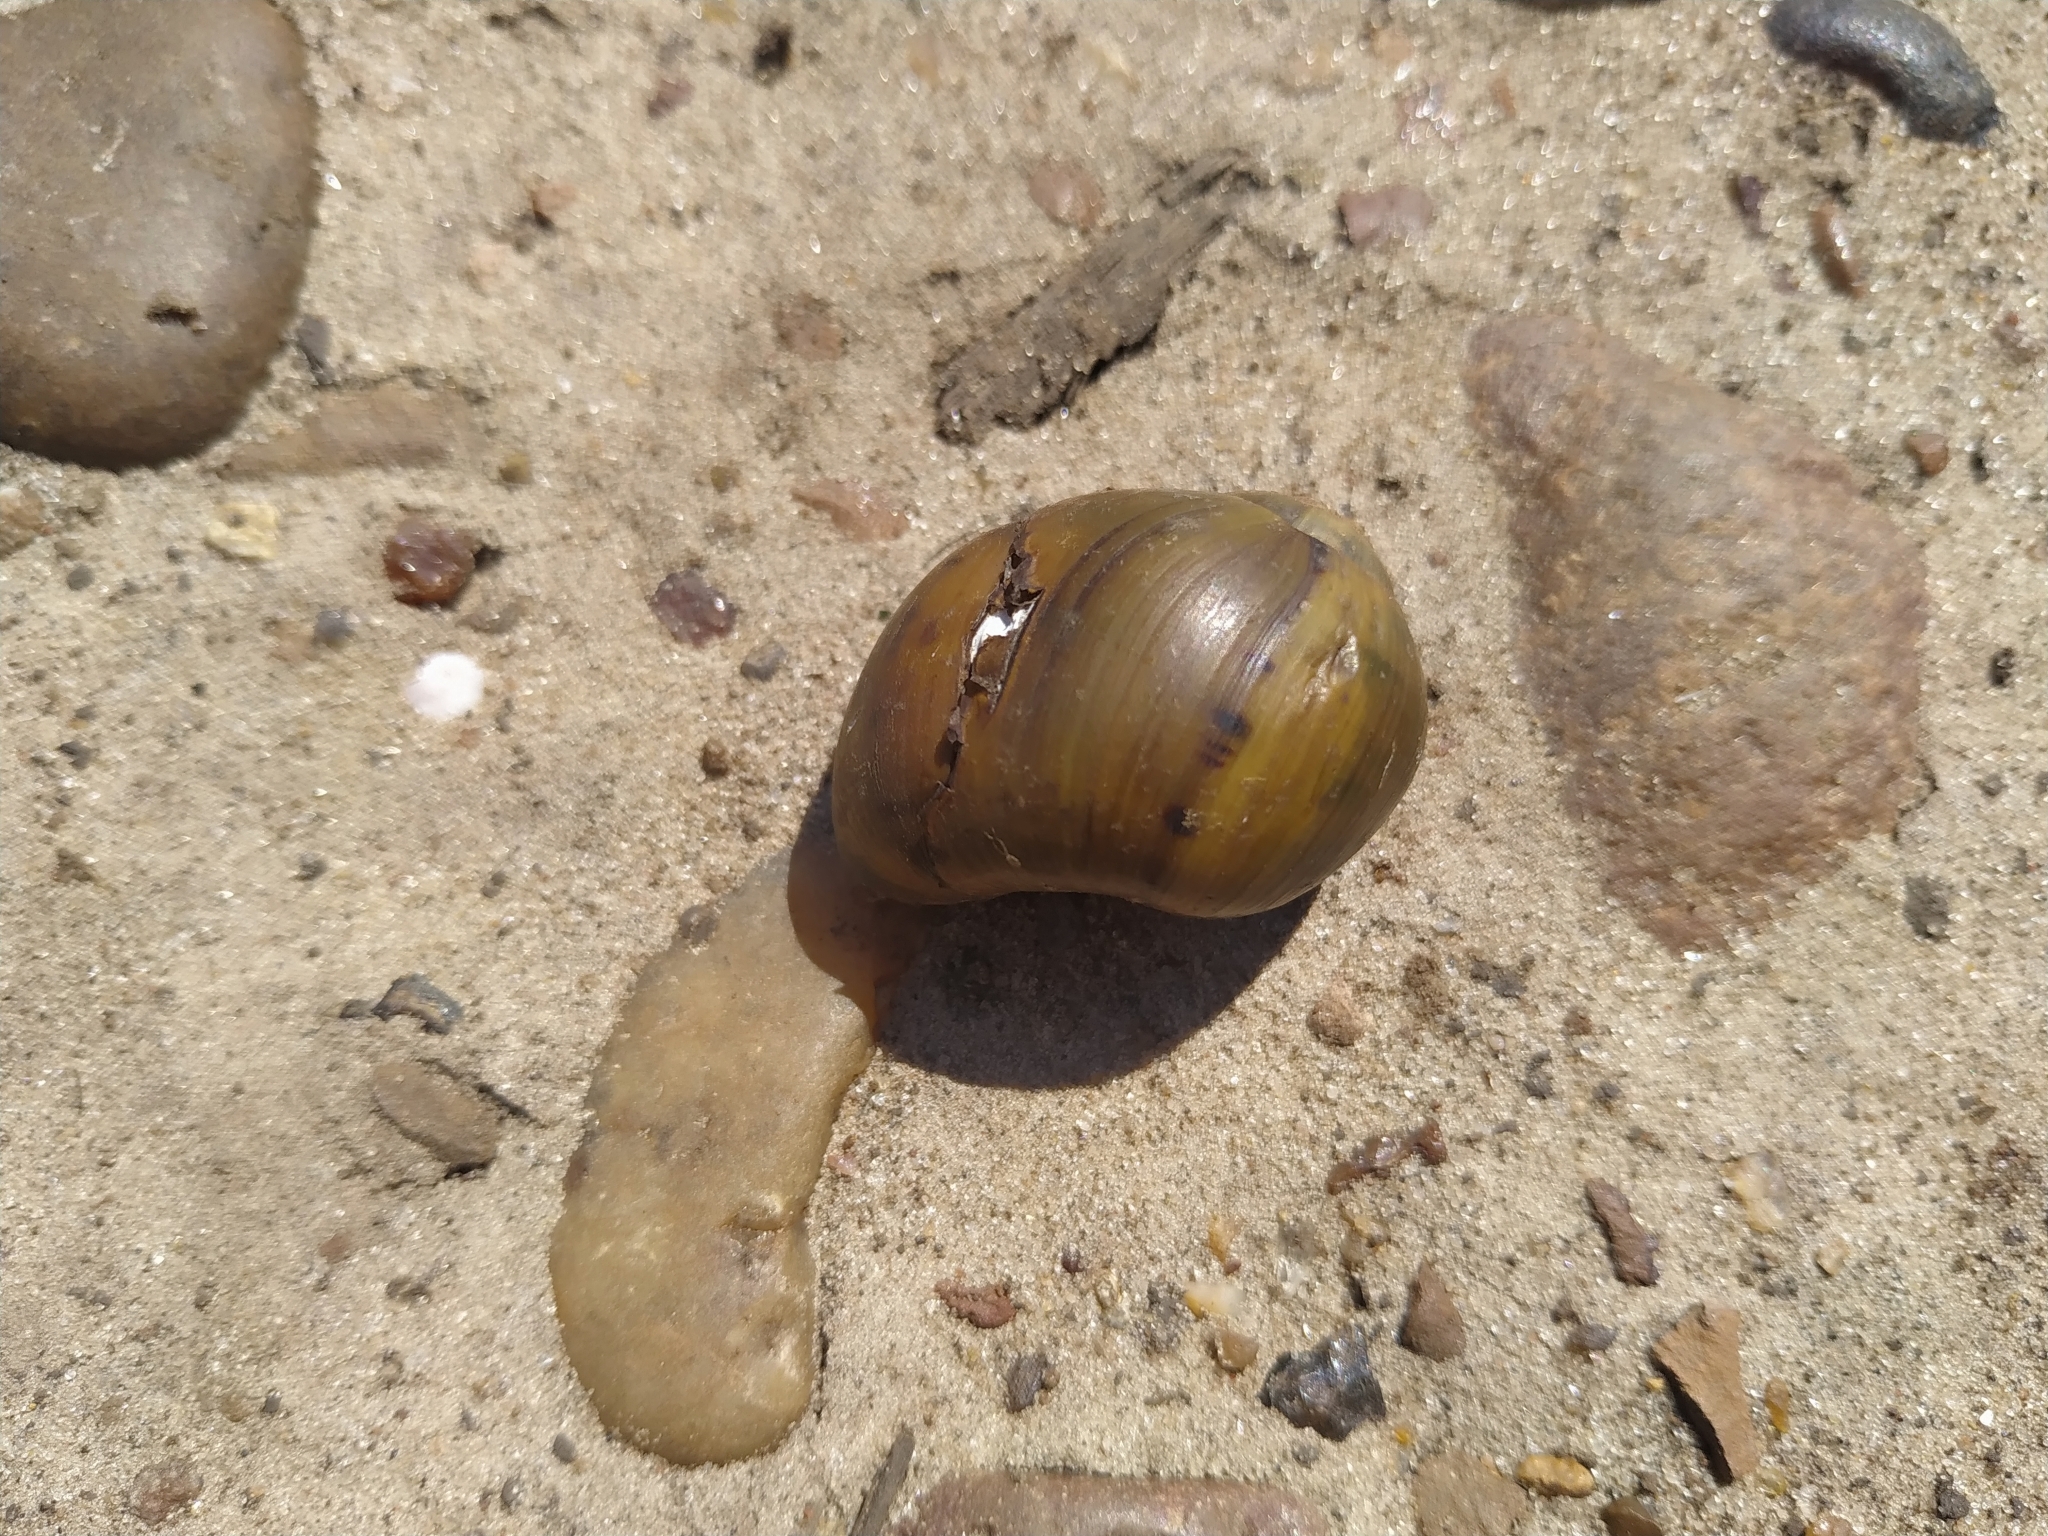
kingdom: Animalia
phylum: Mollusca
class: Gastropoda
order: Architaenioglossa
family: Ampullariidae
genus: Pomacea
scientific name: Pomacea canaliculata
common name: Channeled applesnail
